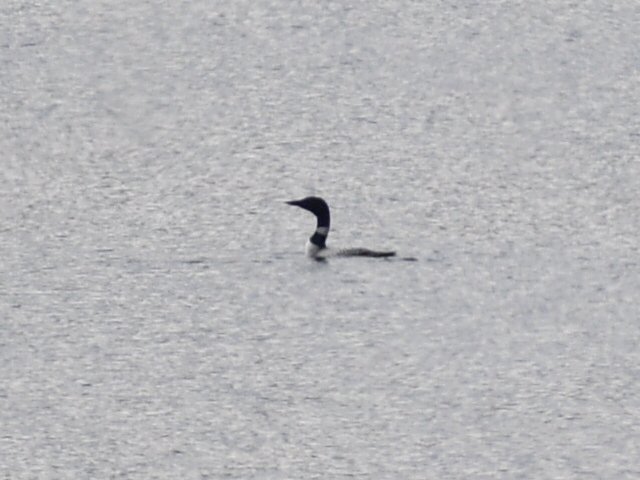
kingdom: Animalia
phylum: Chordata
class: Aves
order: Gaviiformes
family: Gaviidae
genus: Gavia
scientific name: Gavia immer
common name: Common loon
